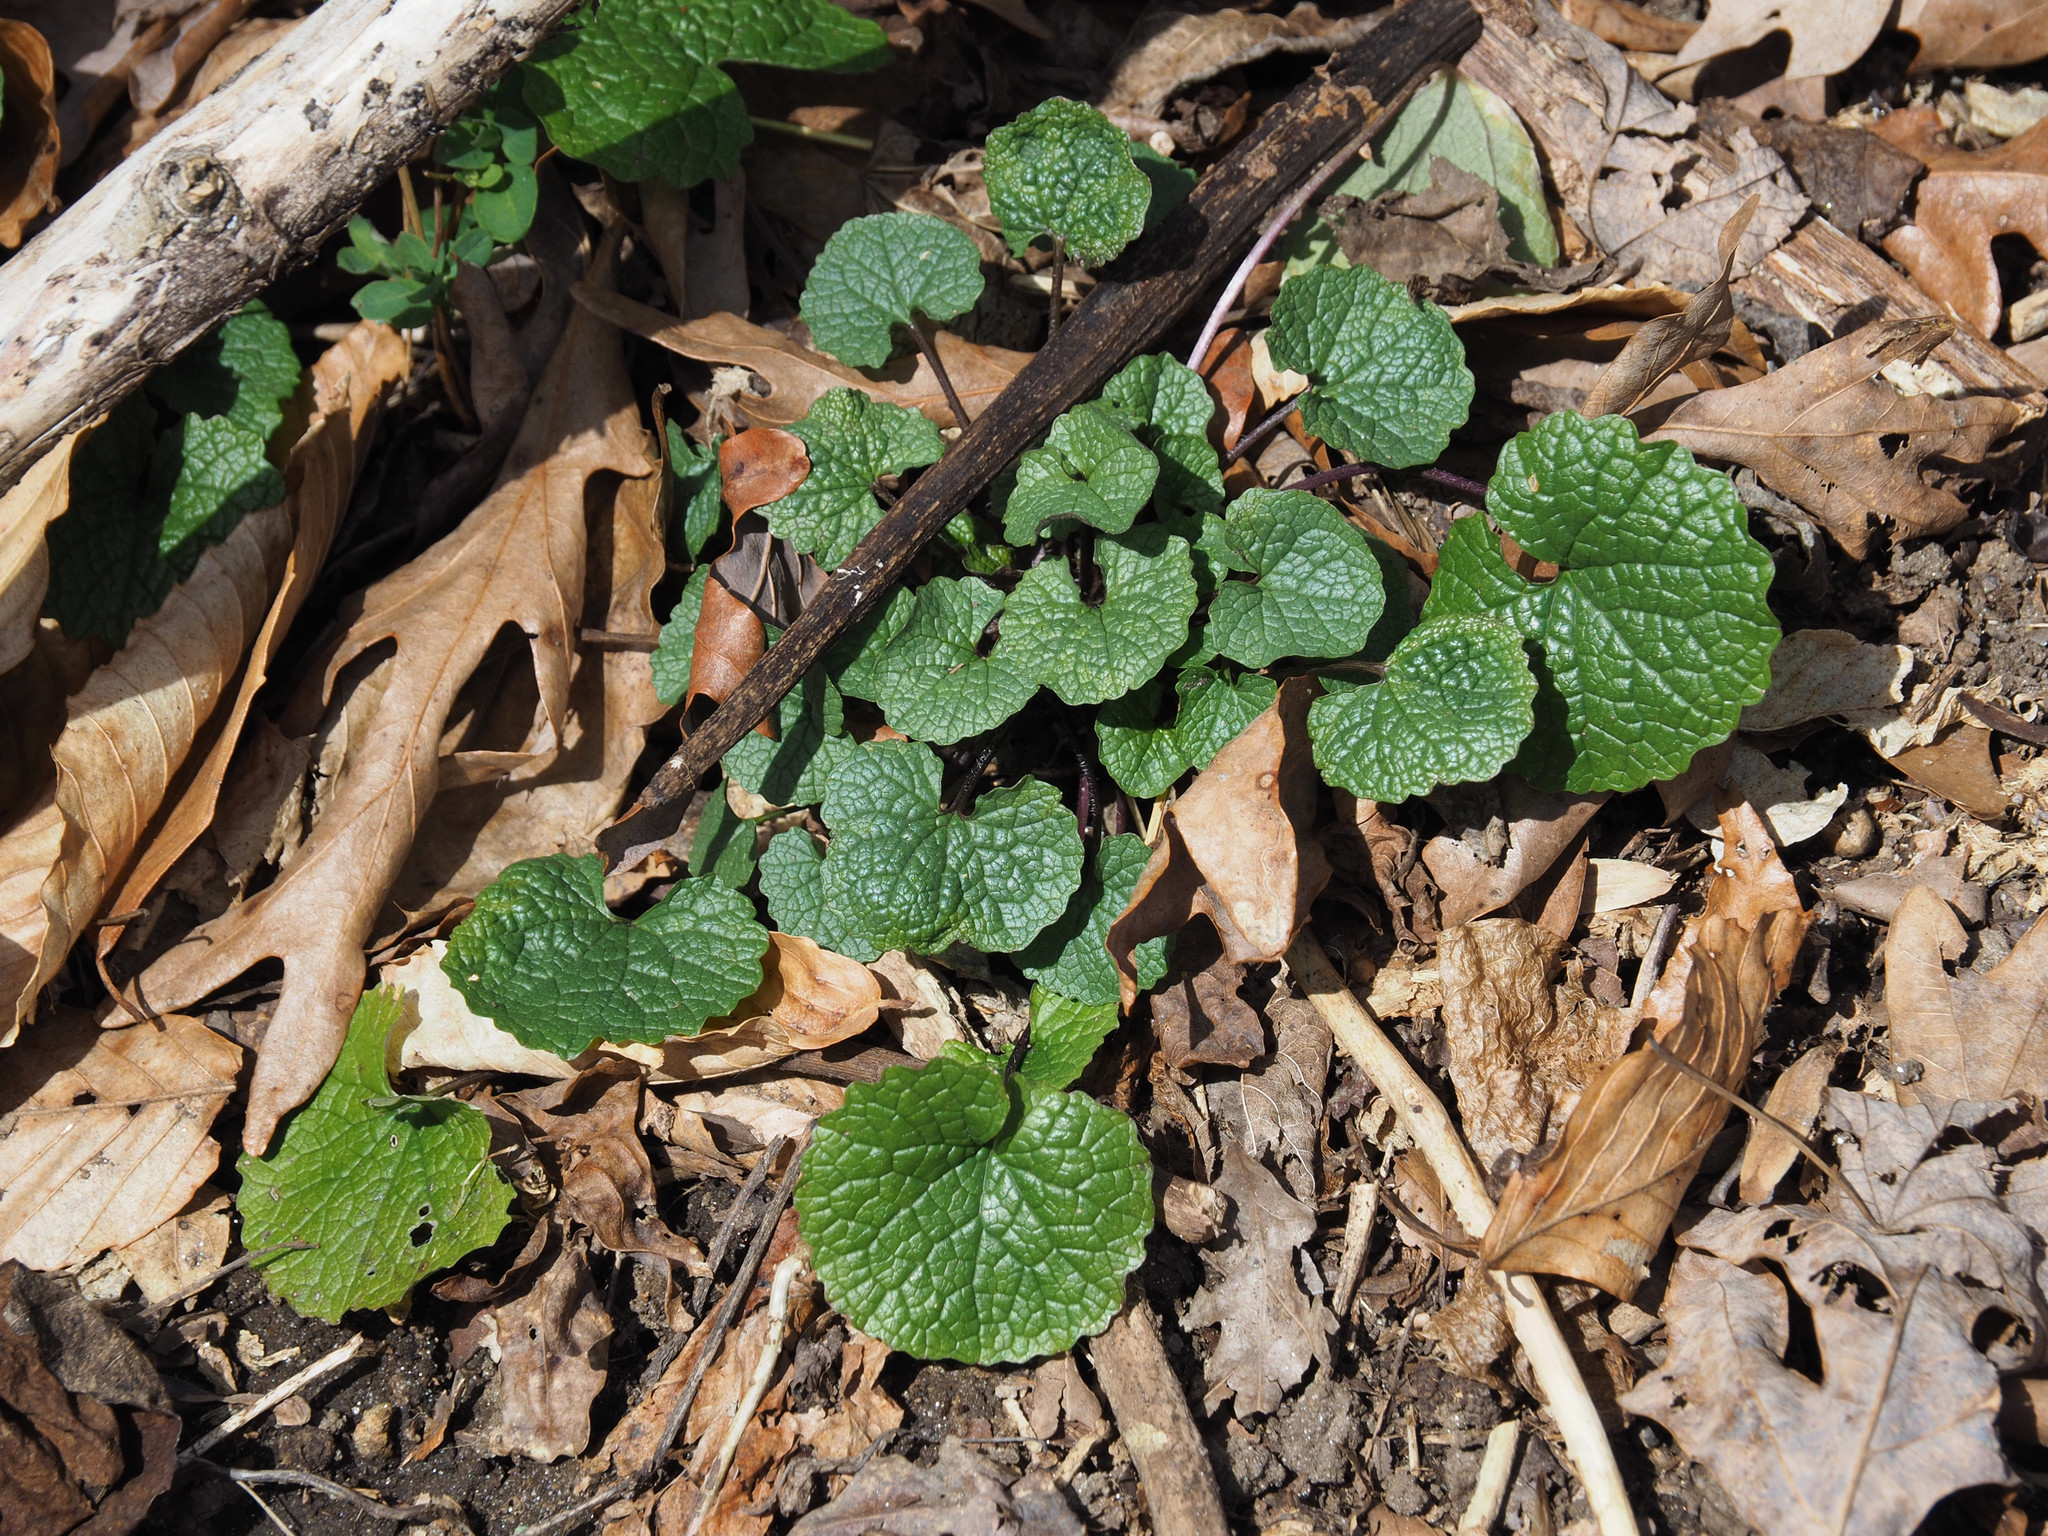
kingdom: Plantae
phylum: Tracheophyta
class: Magnoliopsida
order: Brassicales
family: Brassicaceae
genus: Alliaria
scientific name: Alliaria petiolata
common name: Garlic mustard
